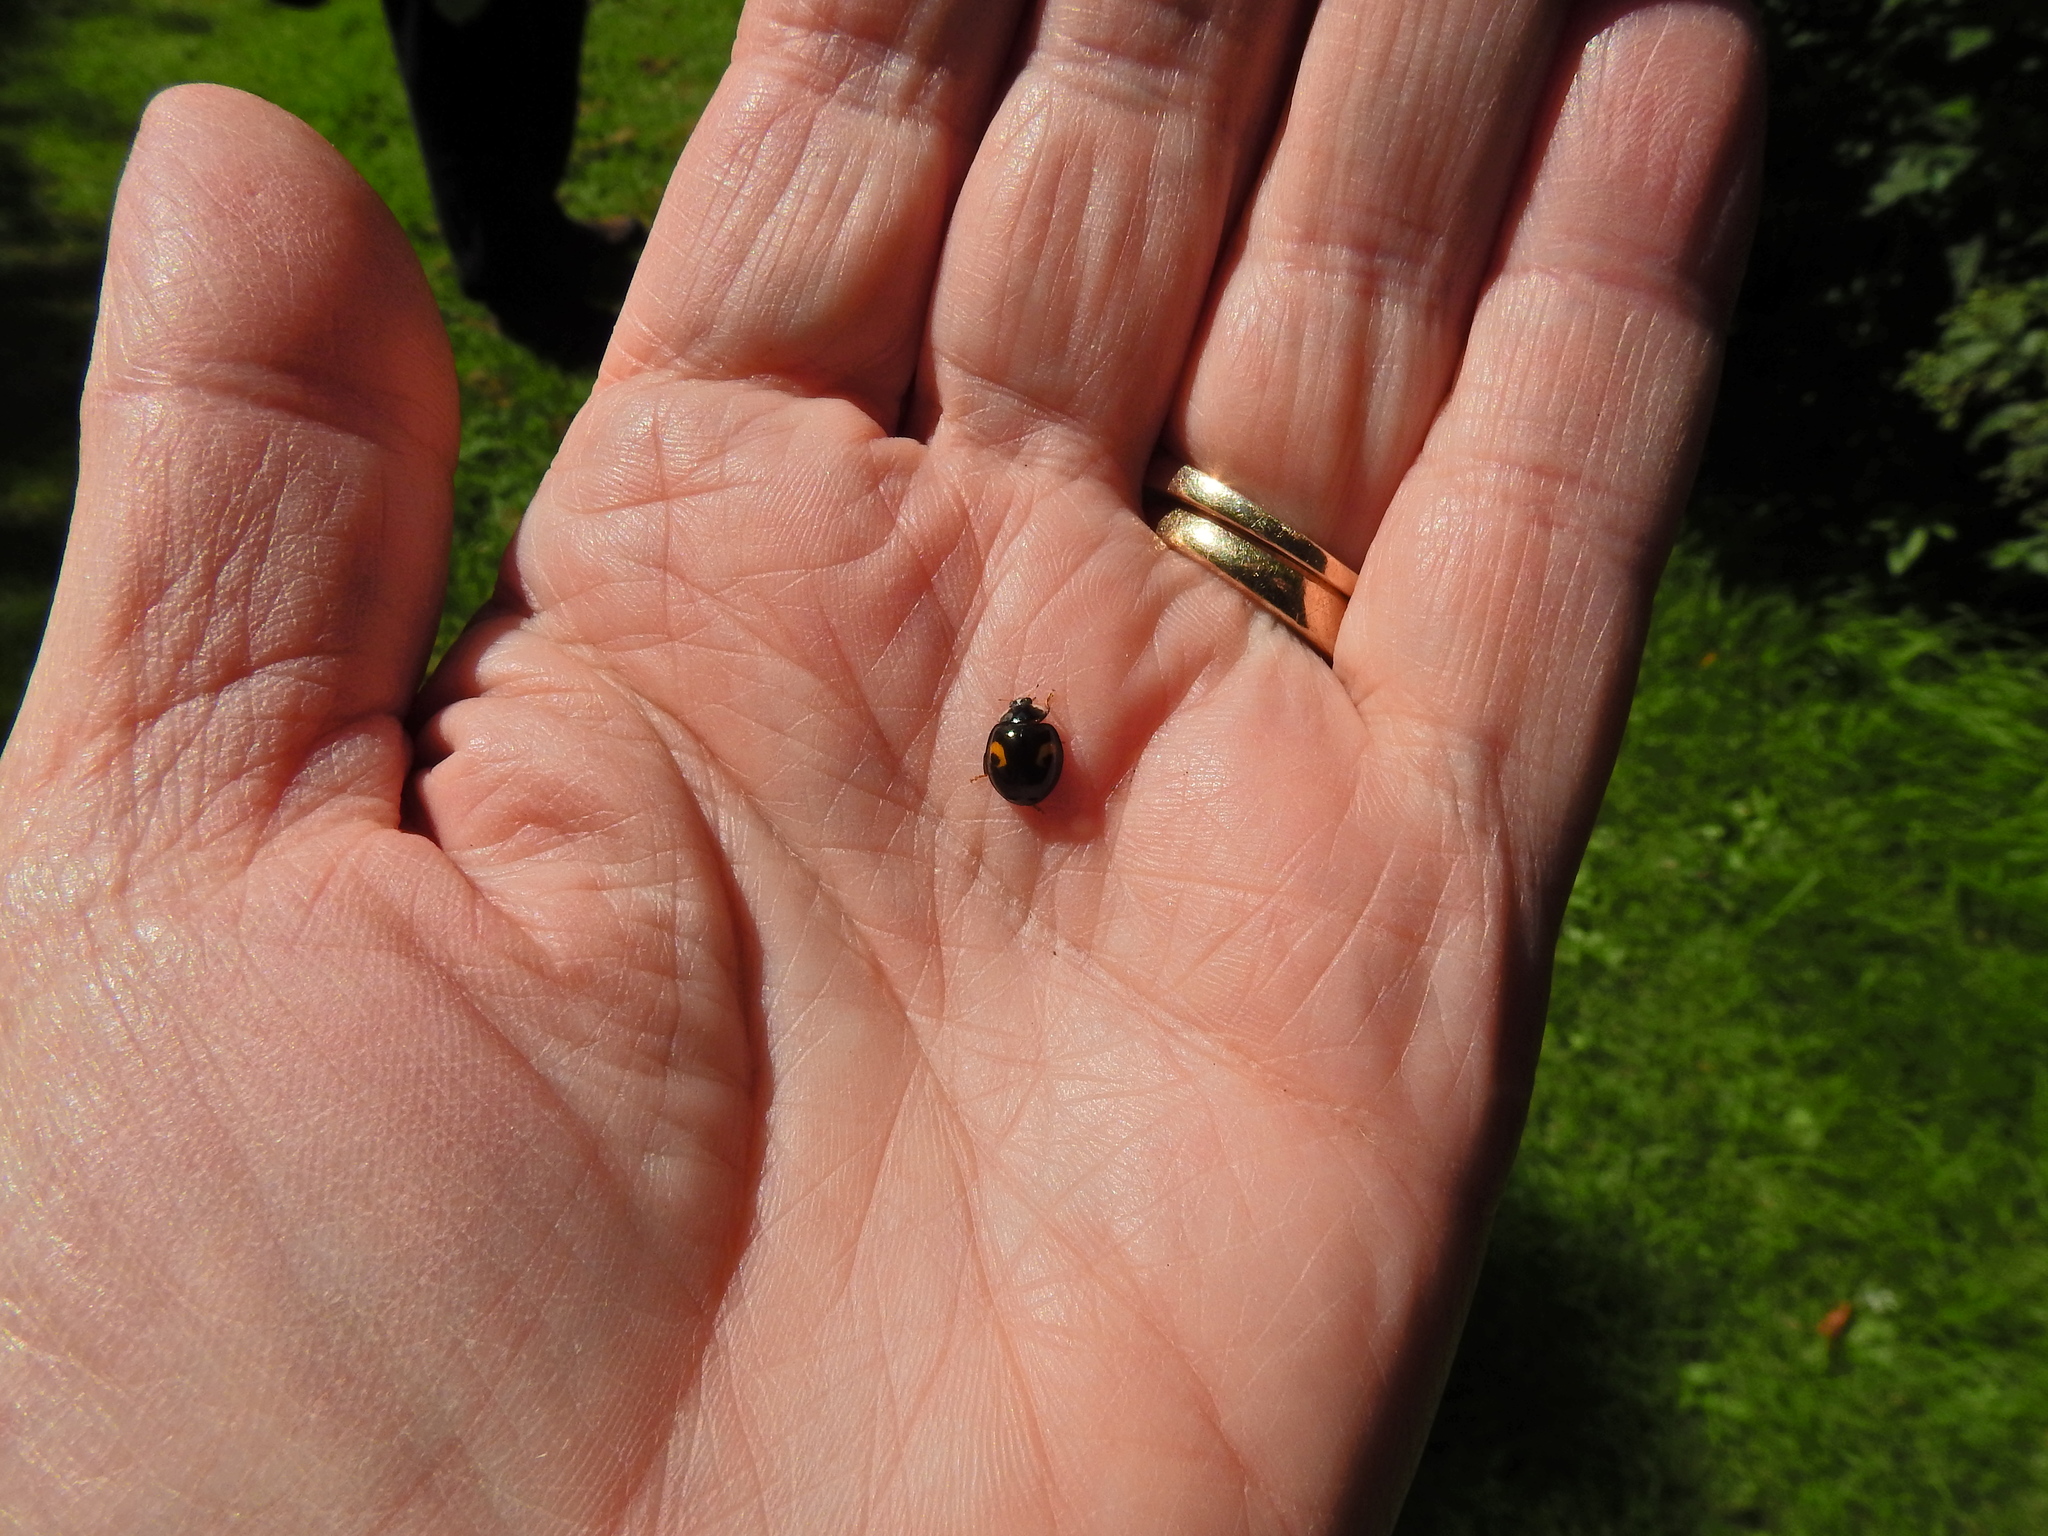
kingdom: Animalia
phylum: Arthropoda
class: Insecta
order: Coleoptera
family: Coccinellidae
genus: Harmonia
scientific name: Harmonia axyridis
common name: Harlequin ladybird
